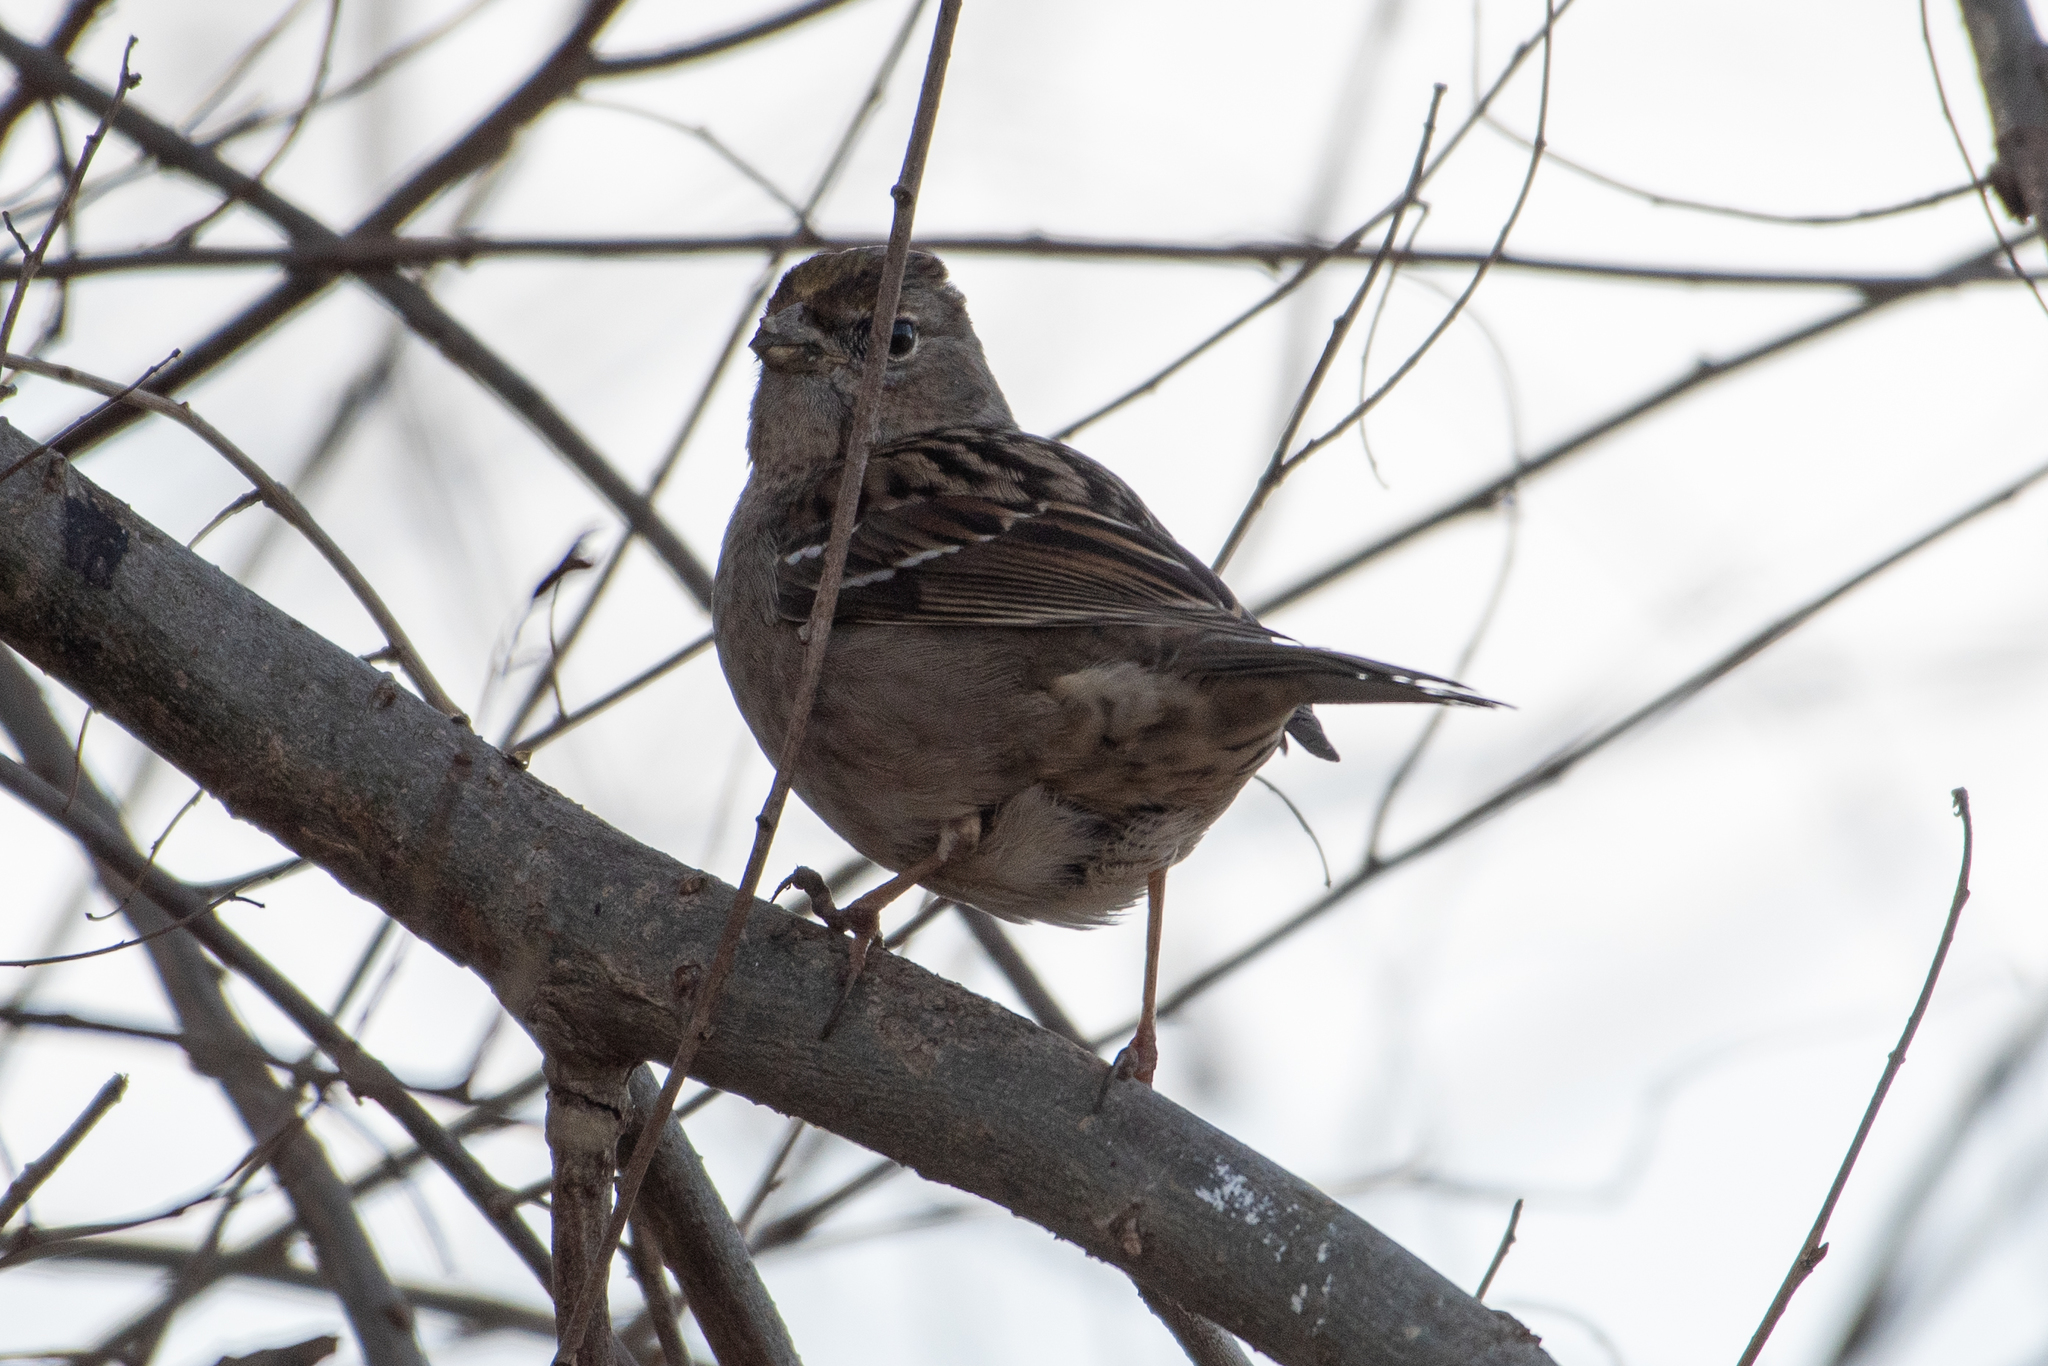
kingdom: Animalia
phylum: Chordata
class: Aves
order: Passeriformes
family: Passerellidae
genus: Zonotrichia
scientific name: Zonotrichia atricapilla
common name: Golden-crowned sparrow
